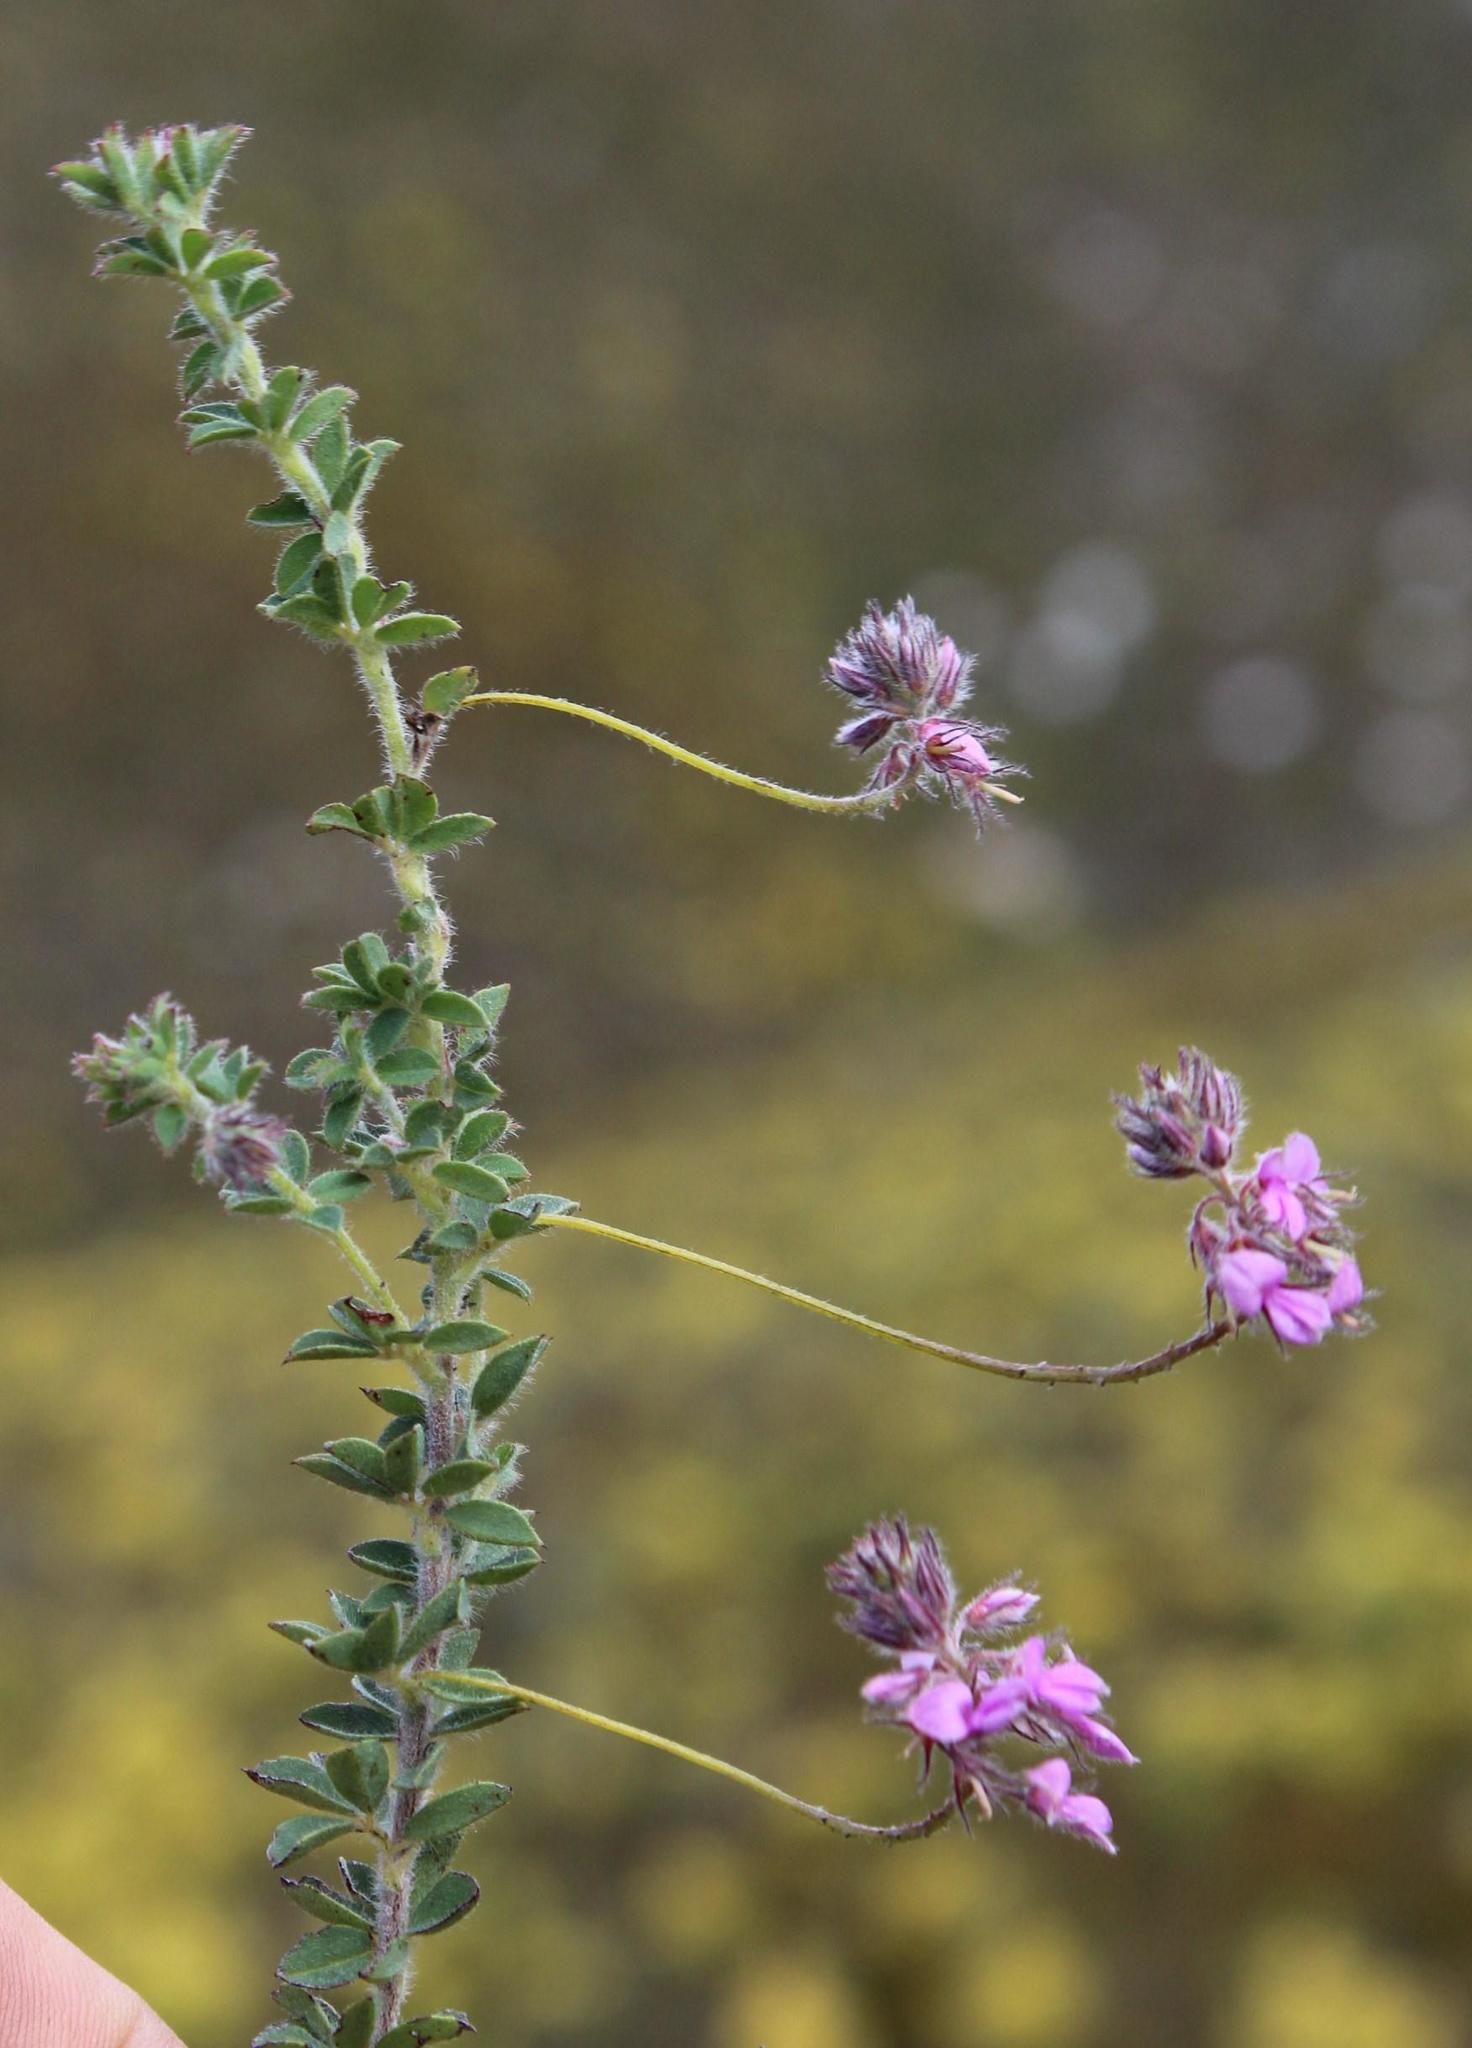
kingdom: Plantae
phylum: Tracheophyta
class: Magnoliopsida
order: Fabales
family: Fabaceae
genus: Indigofera
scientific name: Indigofera alopecuroides
